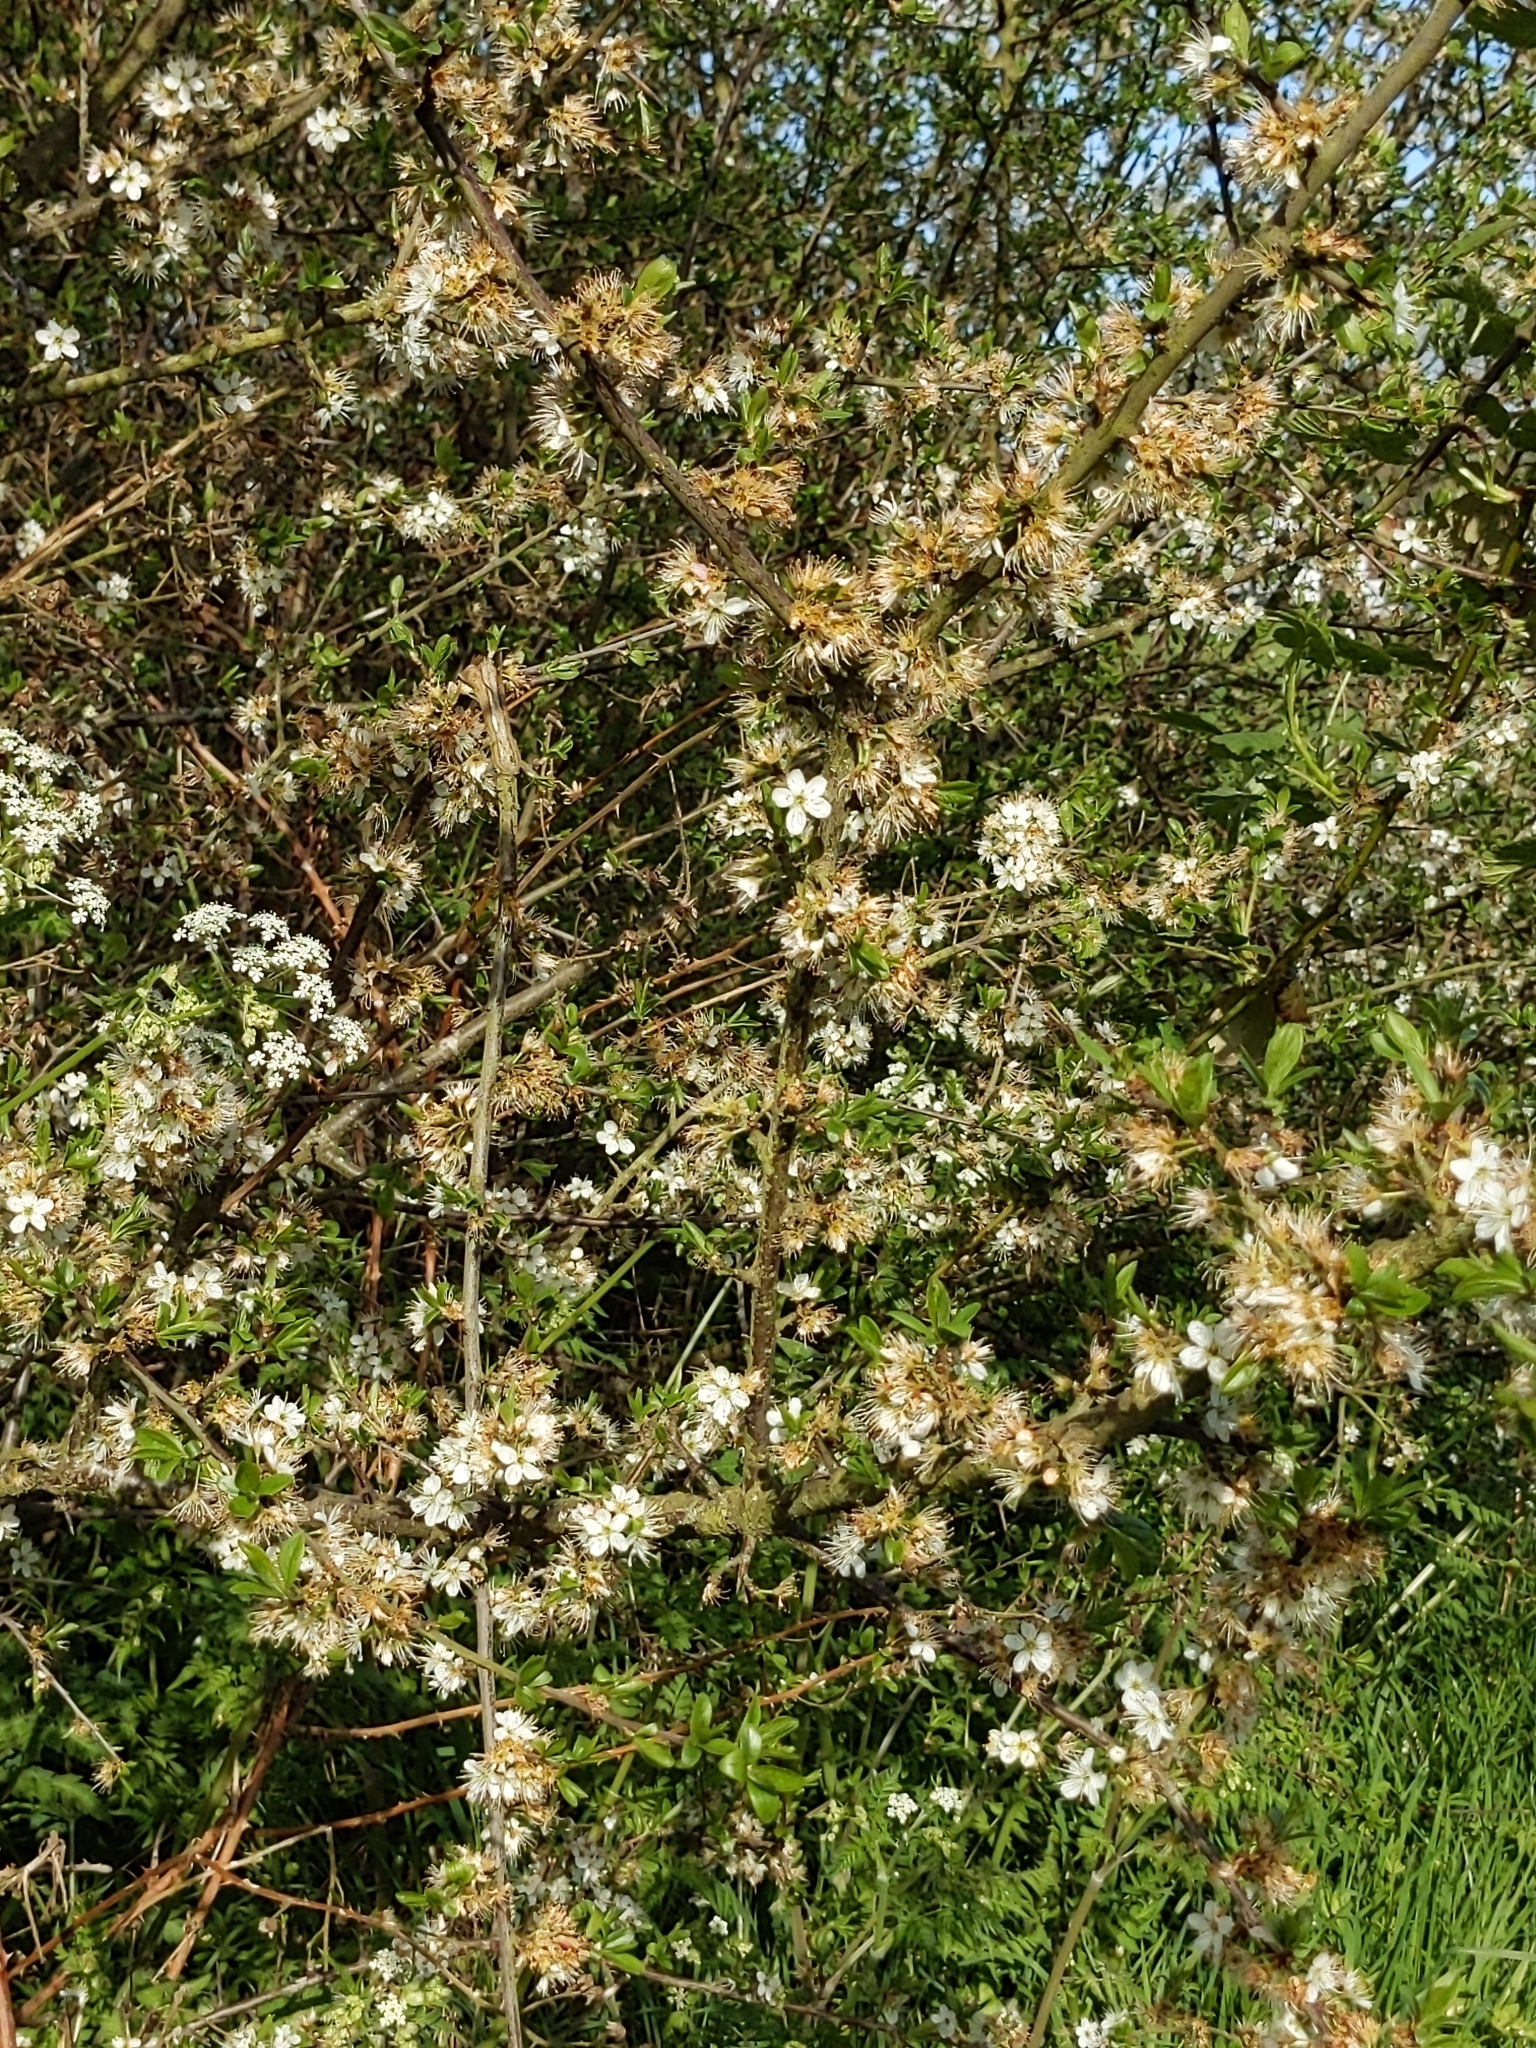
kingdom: Plantae
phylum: Tracheophyta
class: Magnoliopsida
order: Rosales
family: Rosaceae
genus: Prunus
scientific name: Prunus spinosa
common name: Blackthorn
